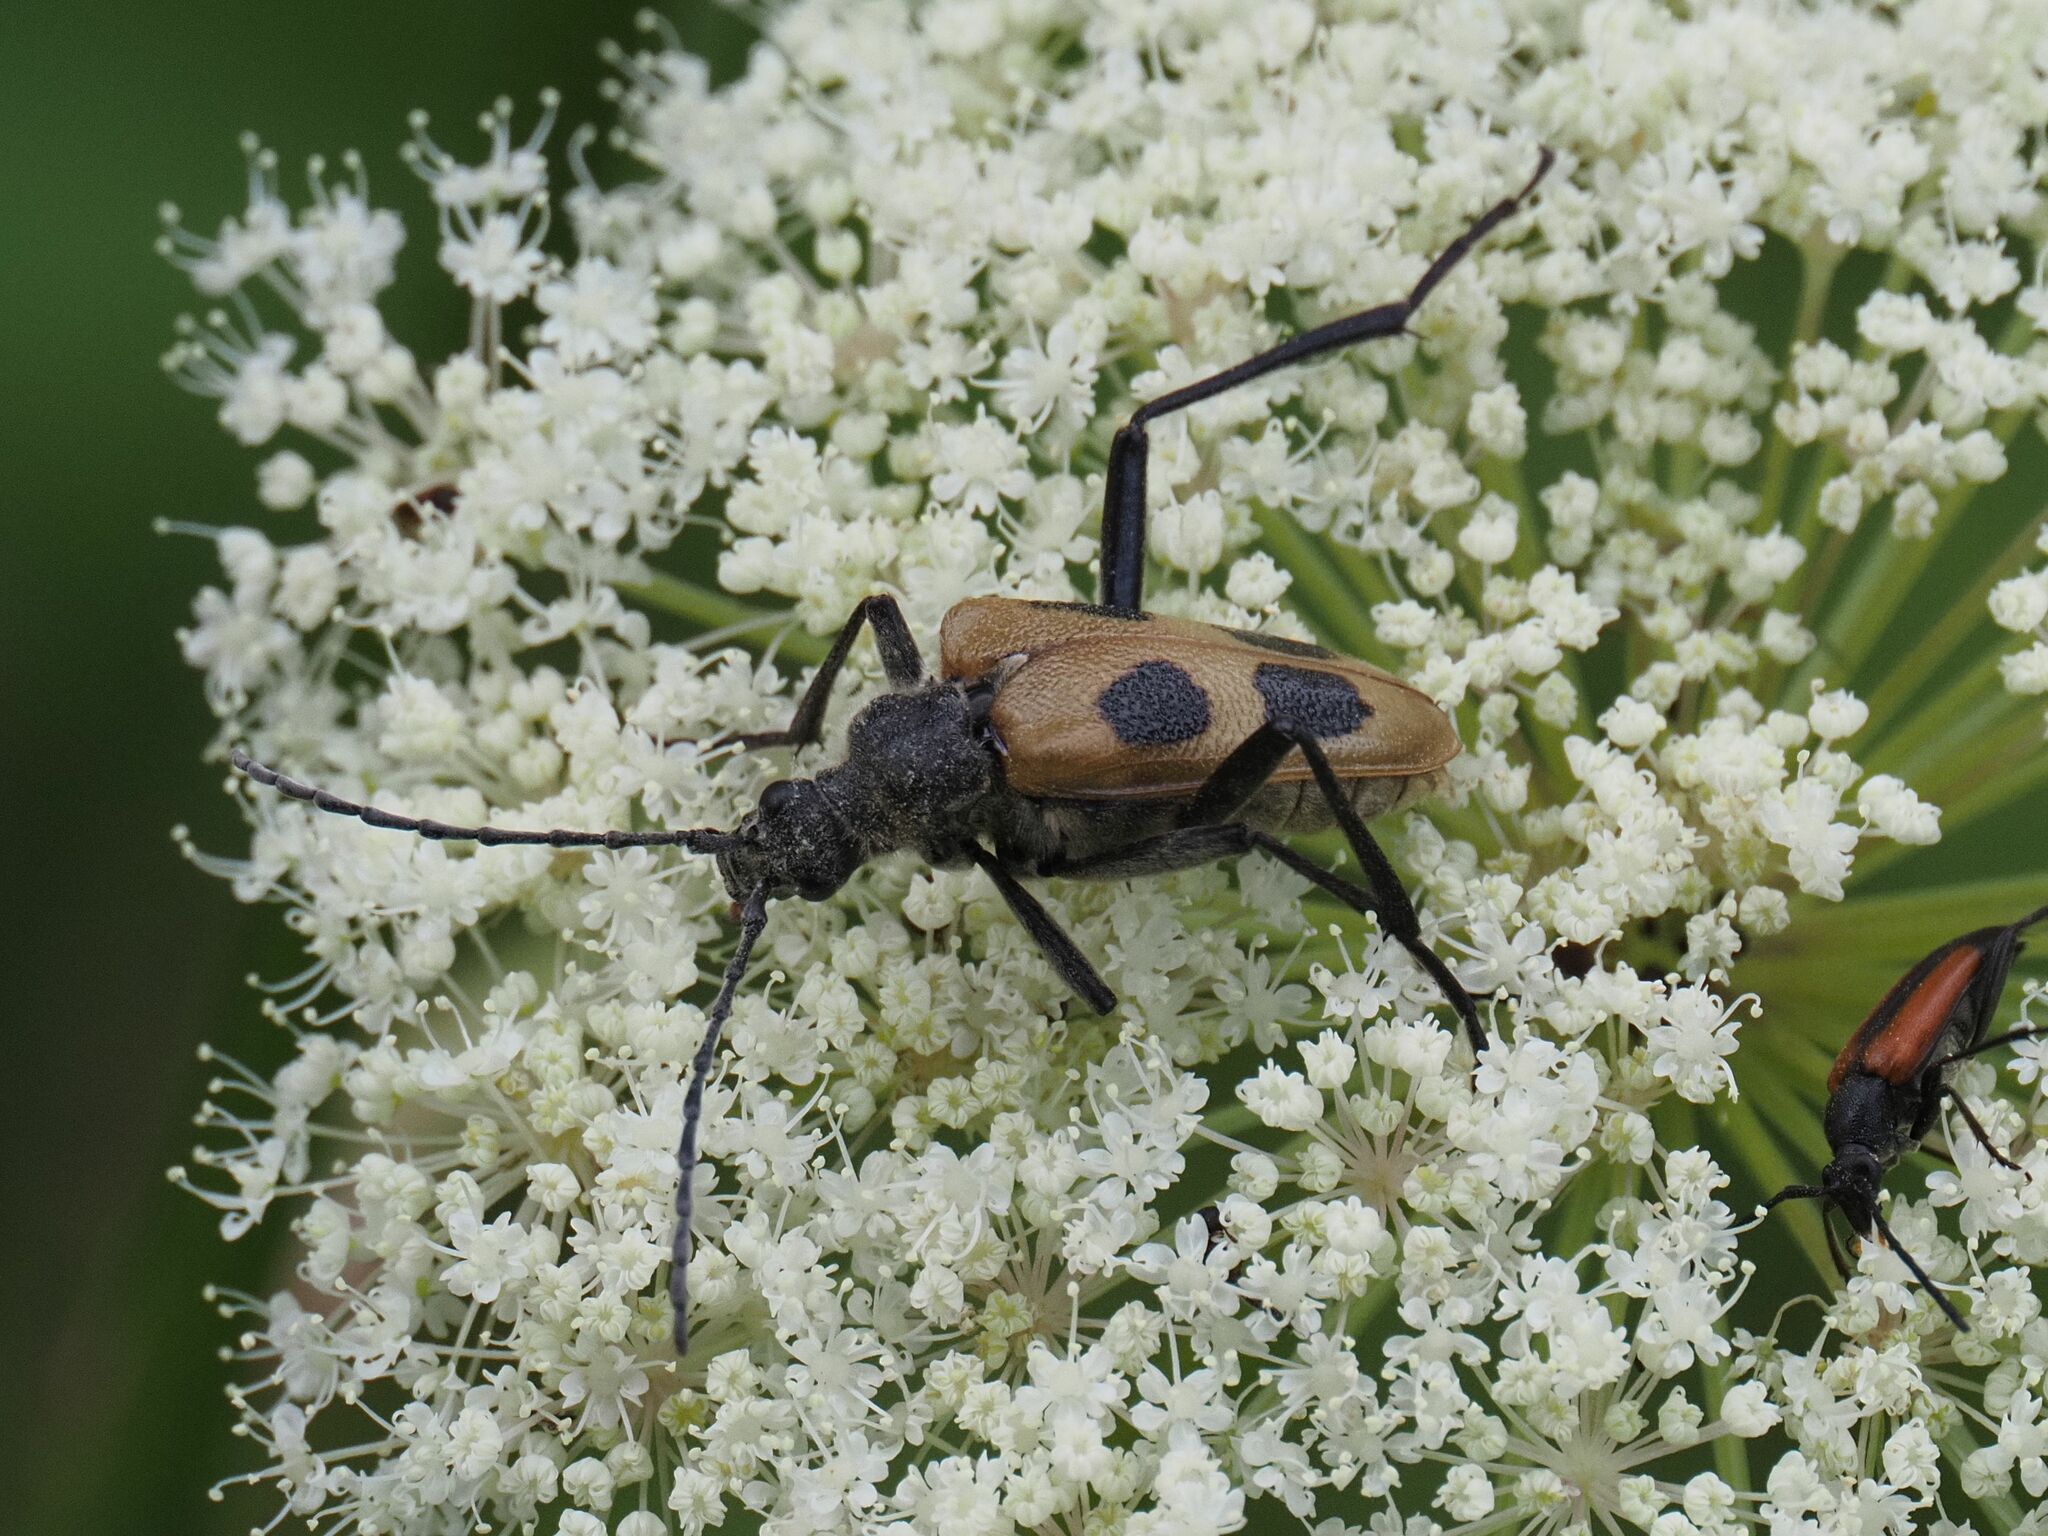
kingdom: Animalia
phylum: Arthropoda
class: Insecta
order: Coleoptera
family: Cerambycidae
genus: Pachyta
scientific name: Pachyta quadrimaculata
